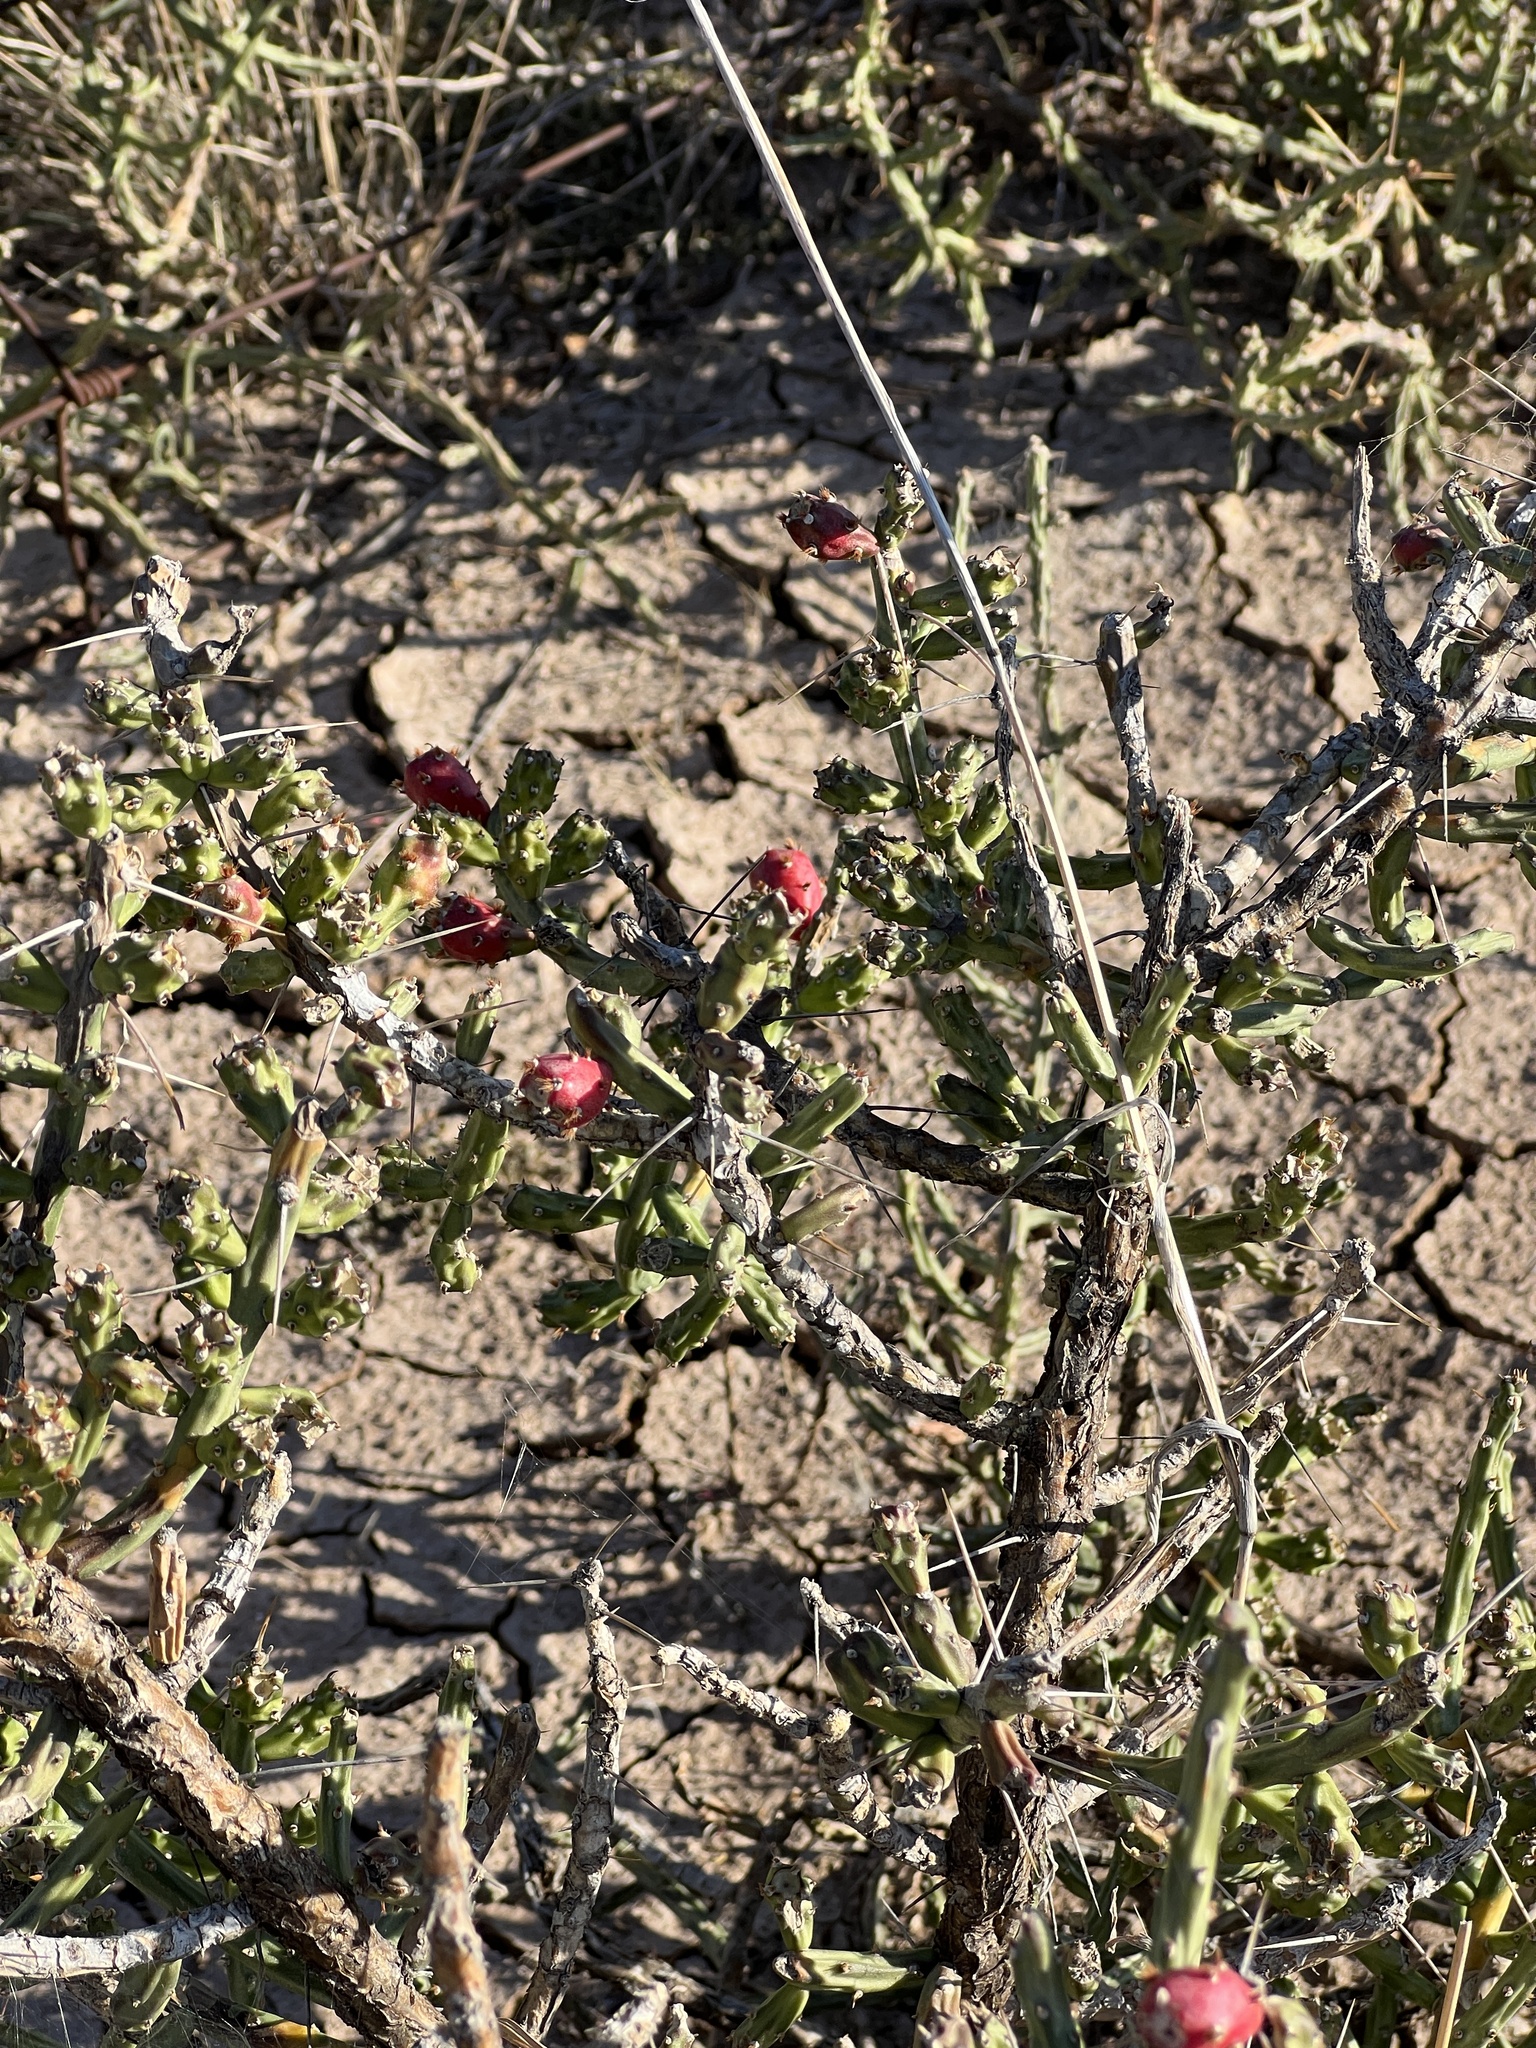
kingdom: Plantae
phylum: Tracheophyta
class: Magnoliopsida
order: Caryophyllales
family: Cactaceae
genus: Cylindropuntia
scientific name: Cylindropuntia leptocaulis
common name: Christmas cactus
